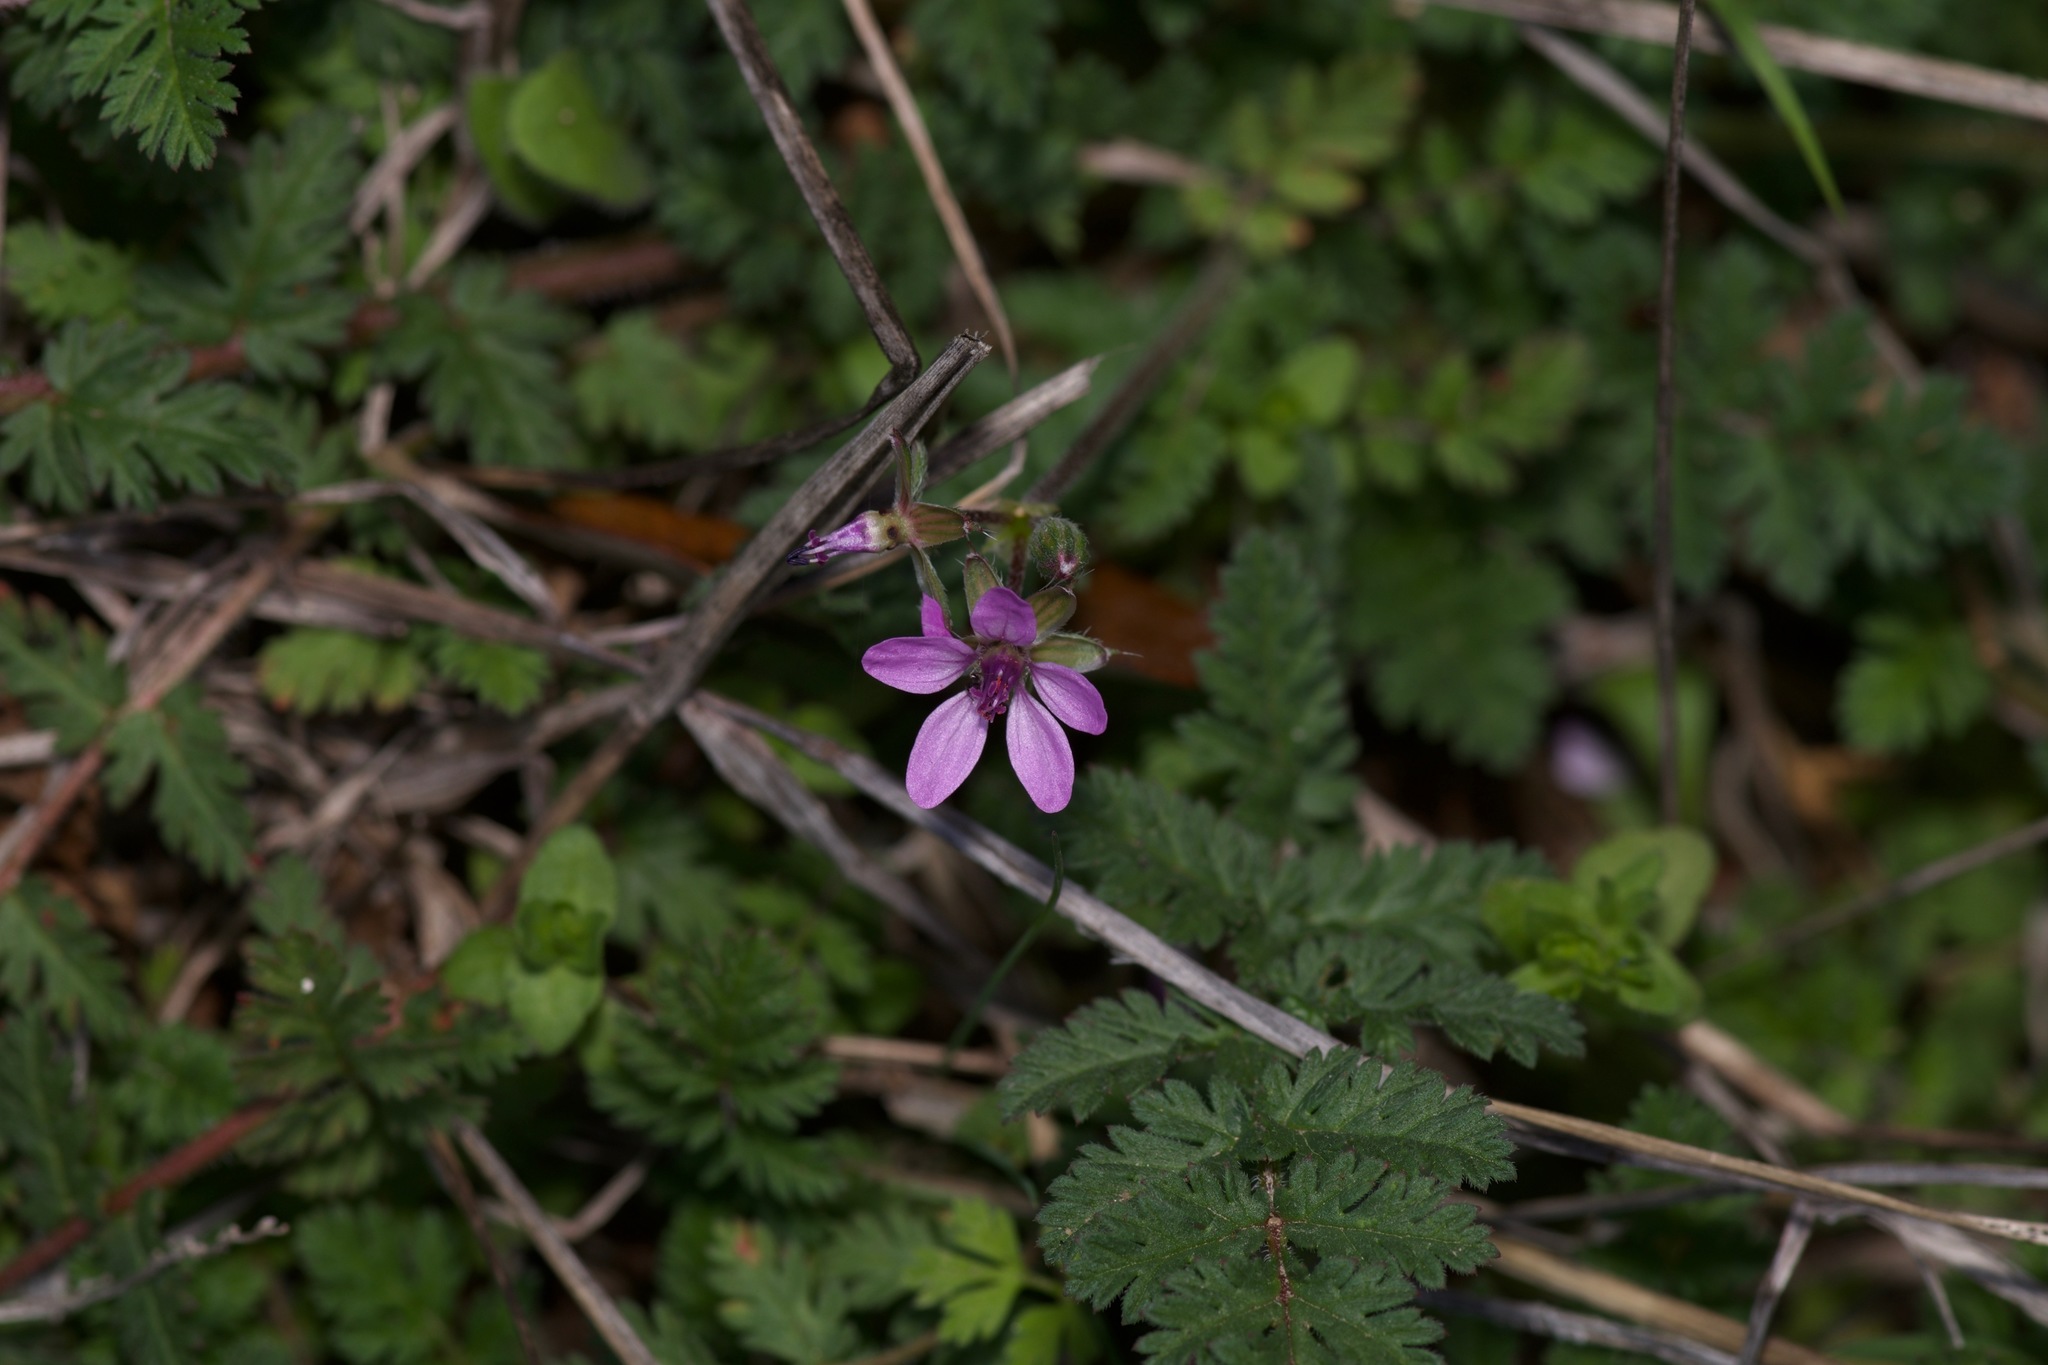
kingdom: Plantae
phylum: Tracheophyta
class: Magnoliopsida
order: Geraniales
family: Geraniaceae
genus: Erodium
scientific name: Erodium cicutarium
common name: Common stork's-bill
